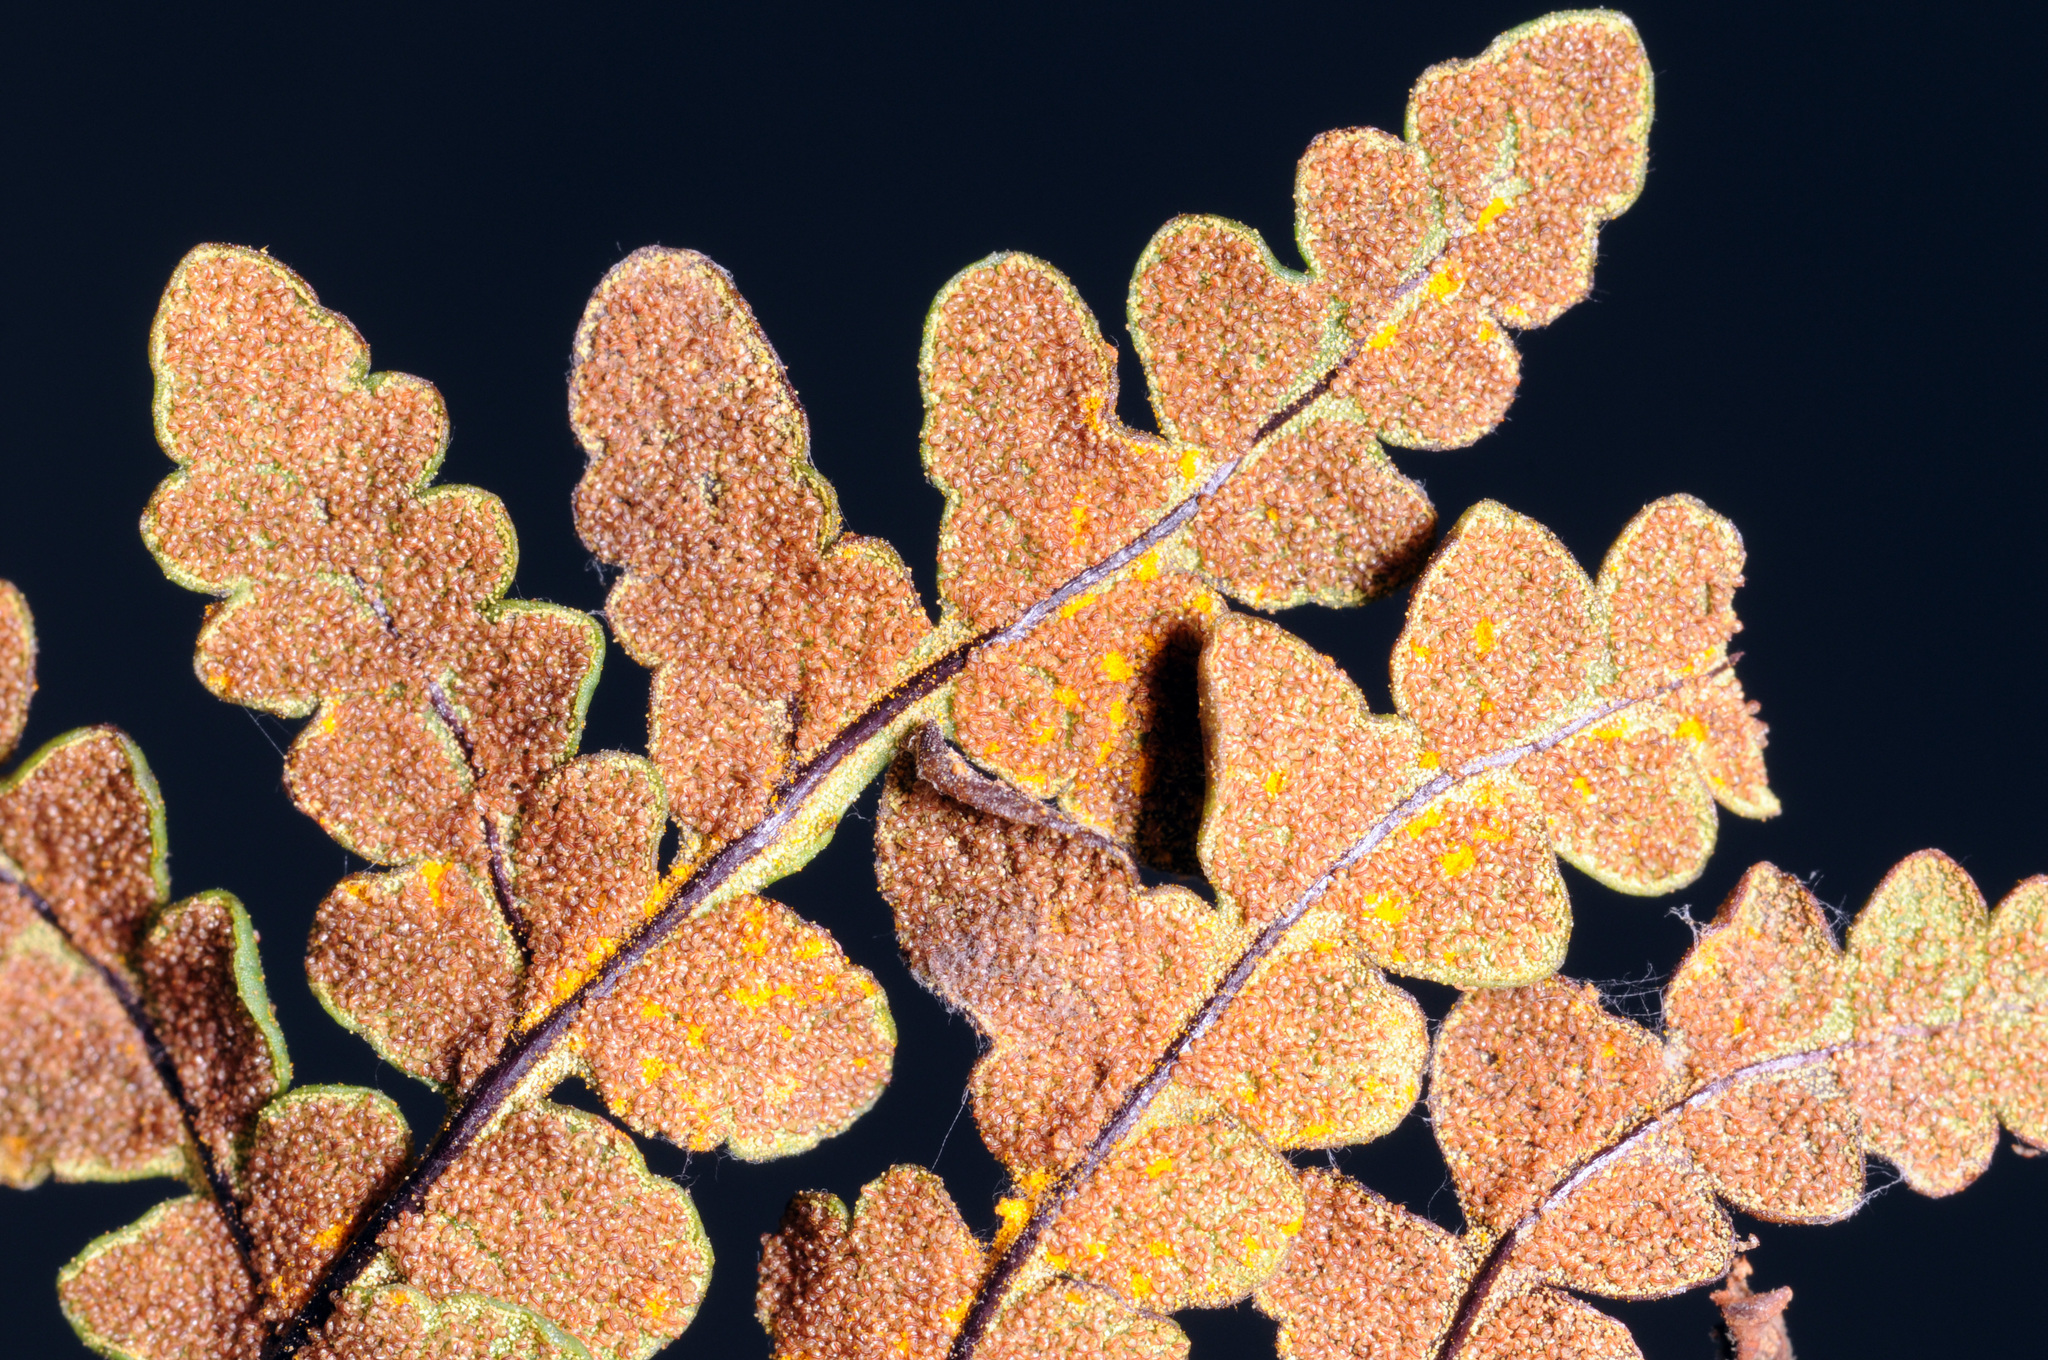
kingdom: Plantae
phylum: Tracheophyta
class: Polypodiopsida
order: Polypodiales
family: Pteridaceae
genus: Pentagramma
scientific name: Pentagramma triangularis
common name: Gold fern
